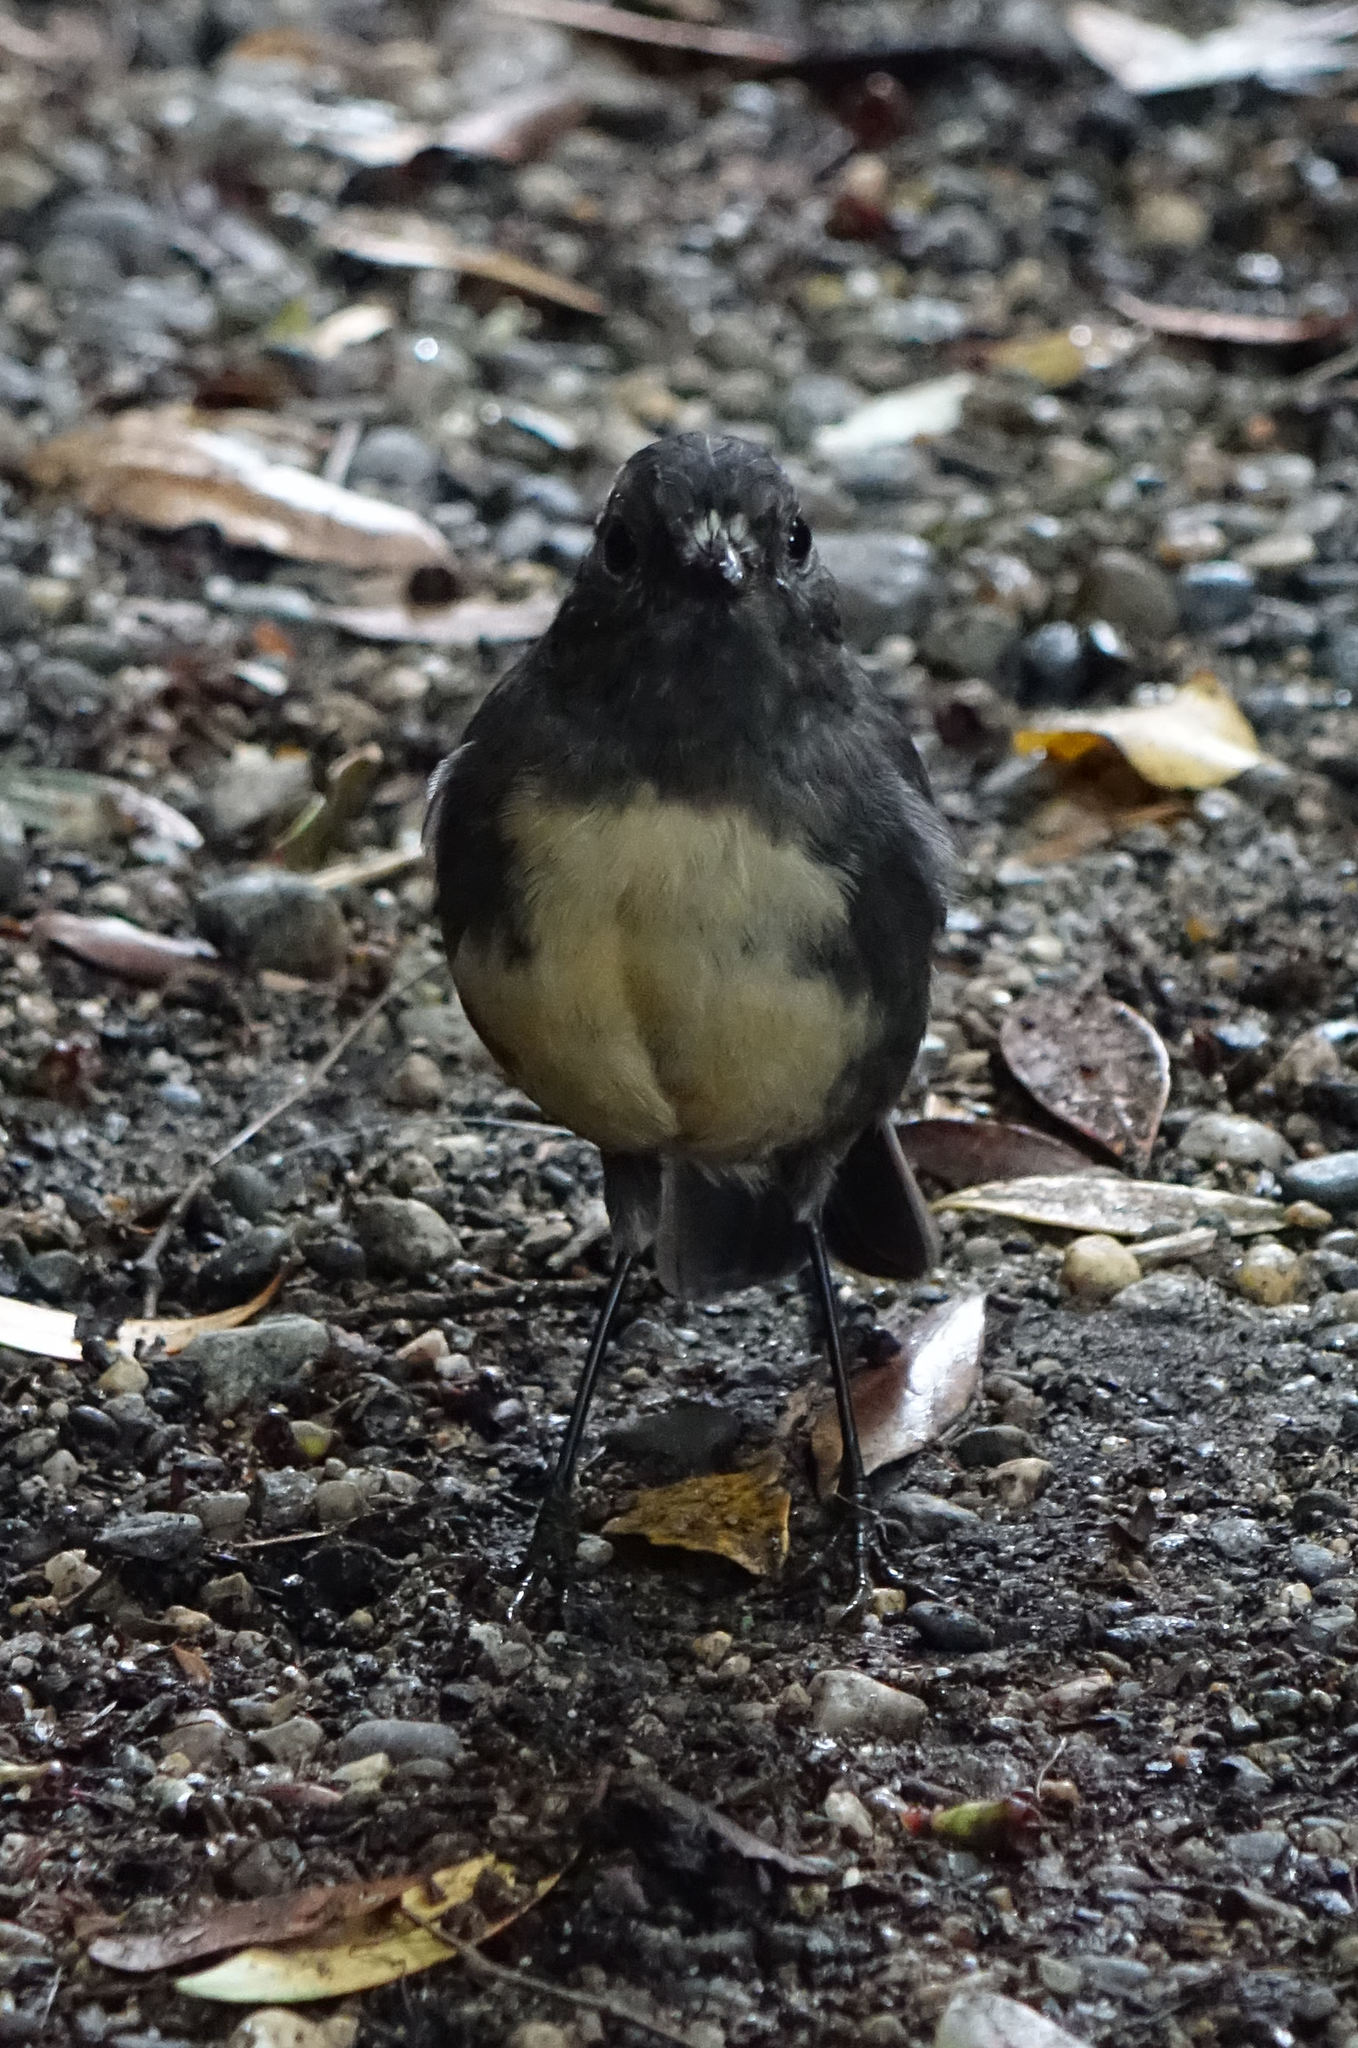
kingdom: Animalia
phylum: Chordata
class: Aves
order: Passeriformes
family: Petroicidae
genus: Petroica
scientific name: Petroica australis
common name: New zealand robin
